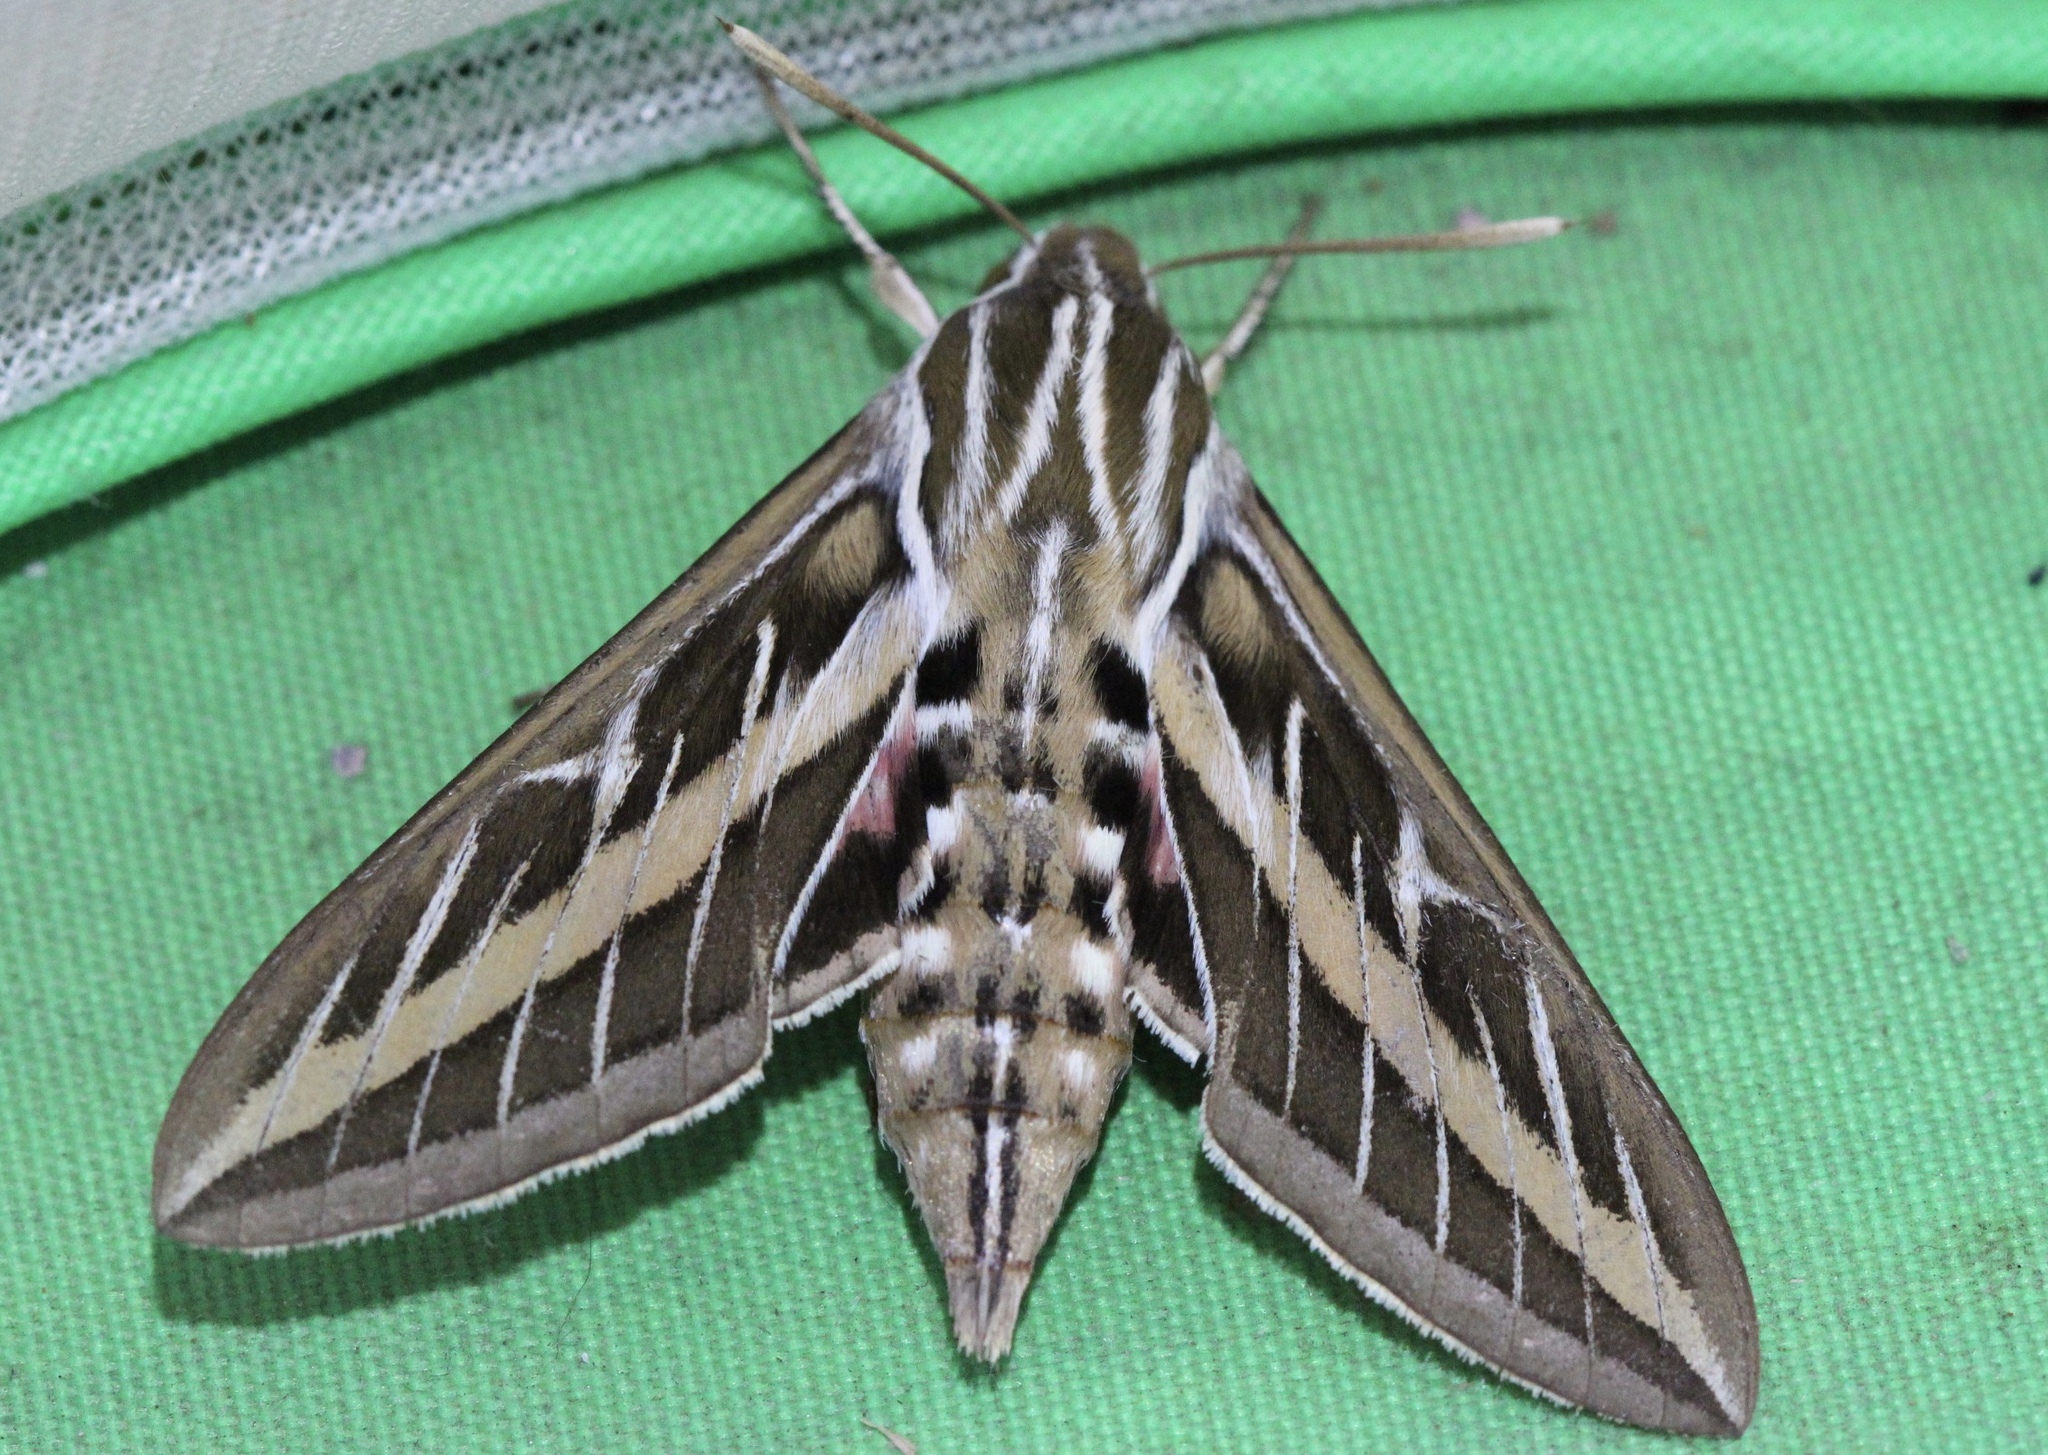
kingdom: Animalia
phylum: Arthropoda
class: Insecta
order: Lepidoptera
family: Sphingidae
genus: Hyles
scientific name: Hyles lineata
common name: White-lined sphinx
